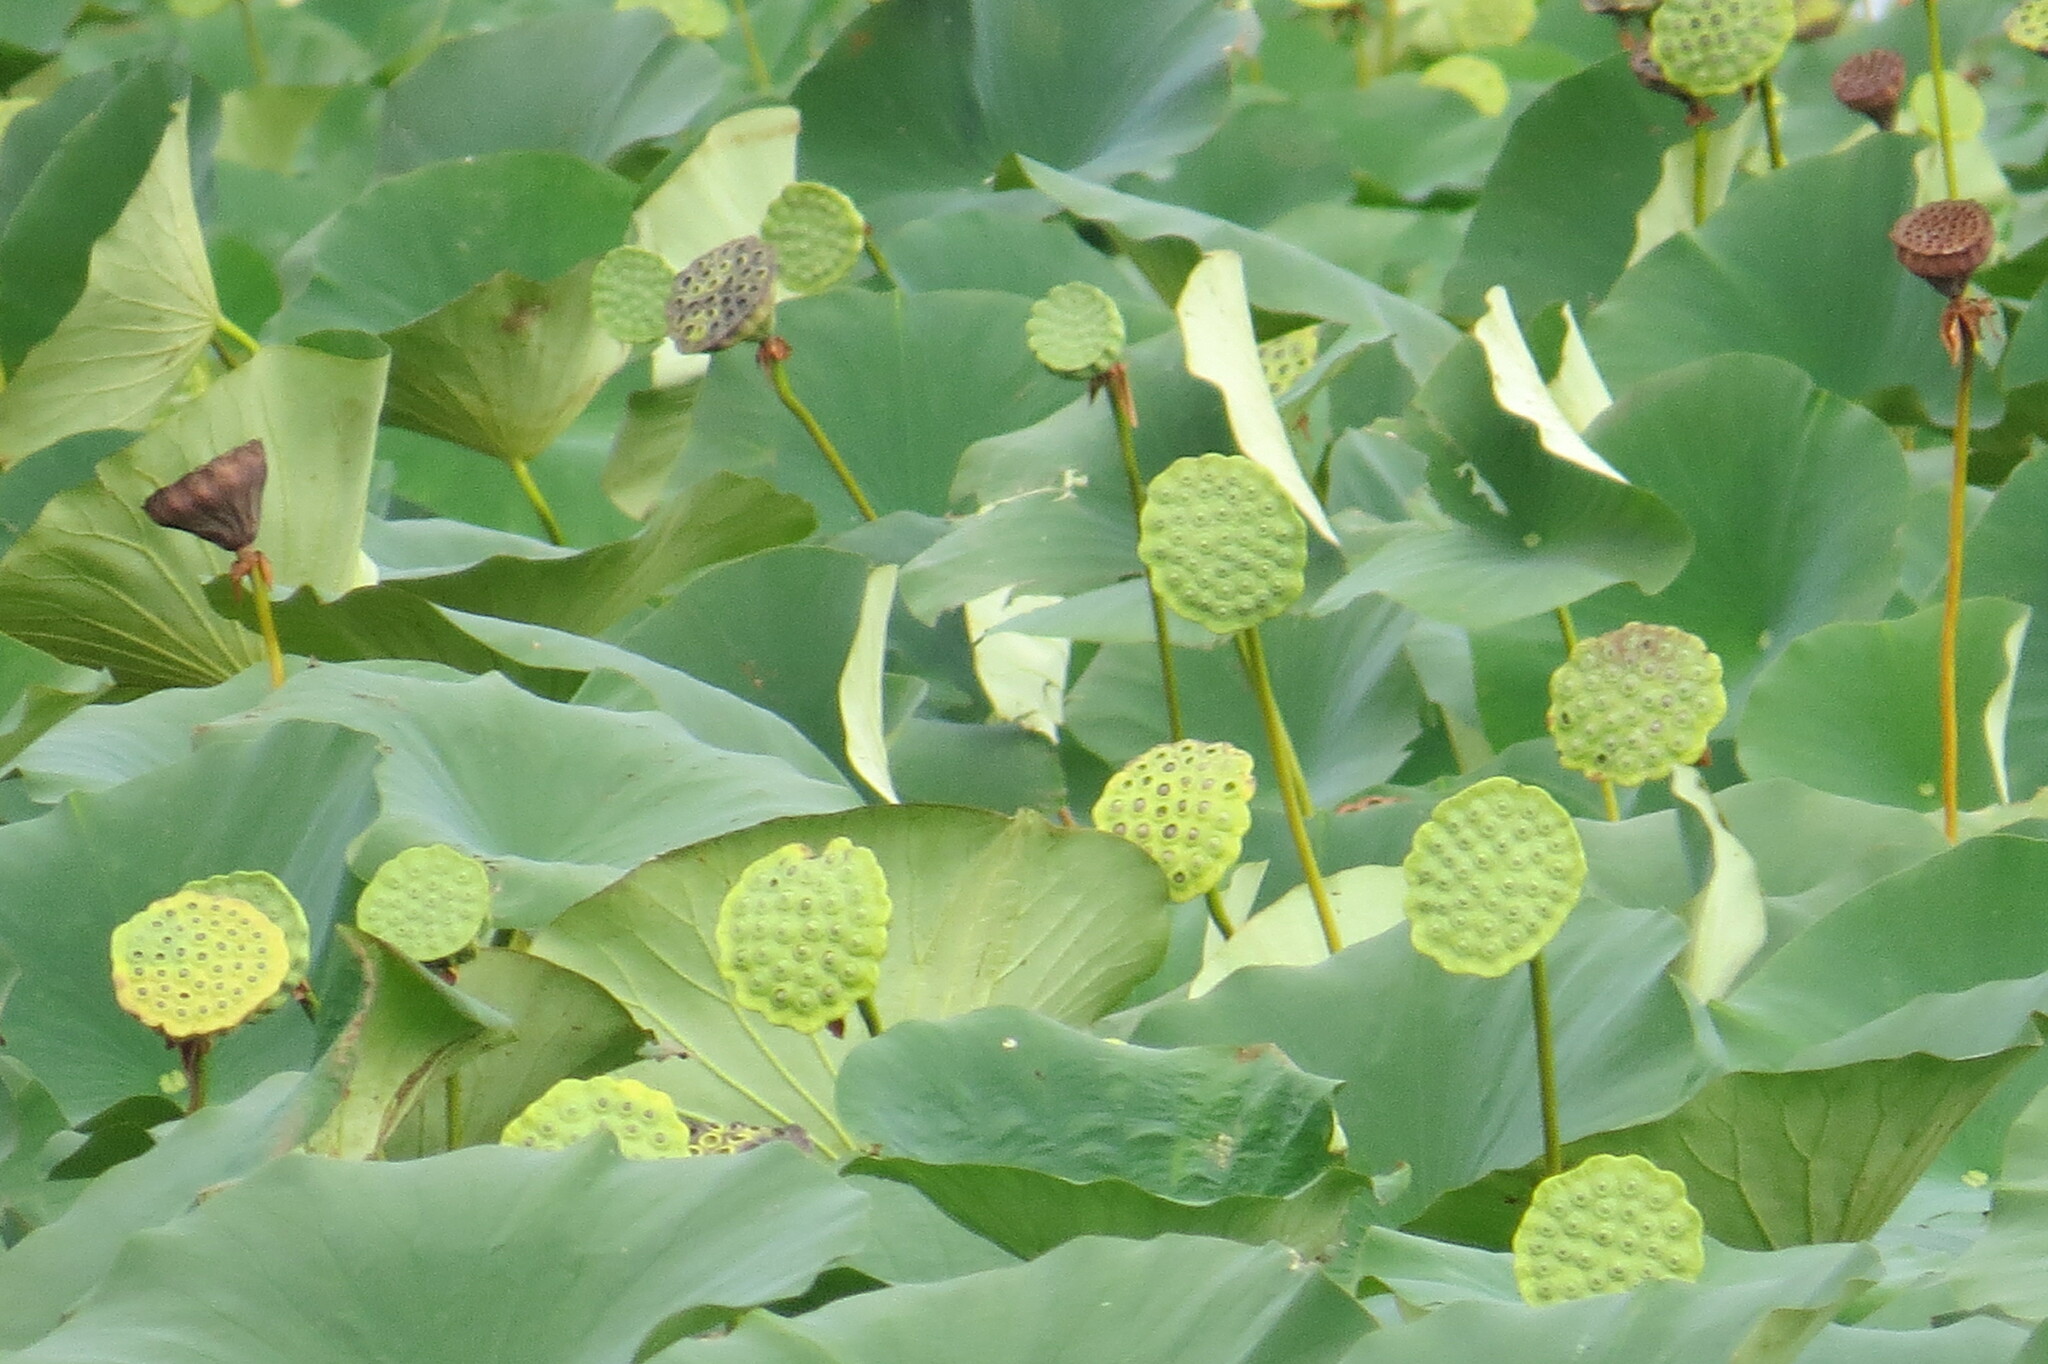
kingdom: Plantae
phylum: Tracheophyta
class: Magnoliopsida
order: Proteales
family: Nelumbonaceae
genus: Nelumbo
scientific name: Nelumbo lutea
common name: American lotus
